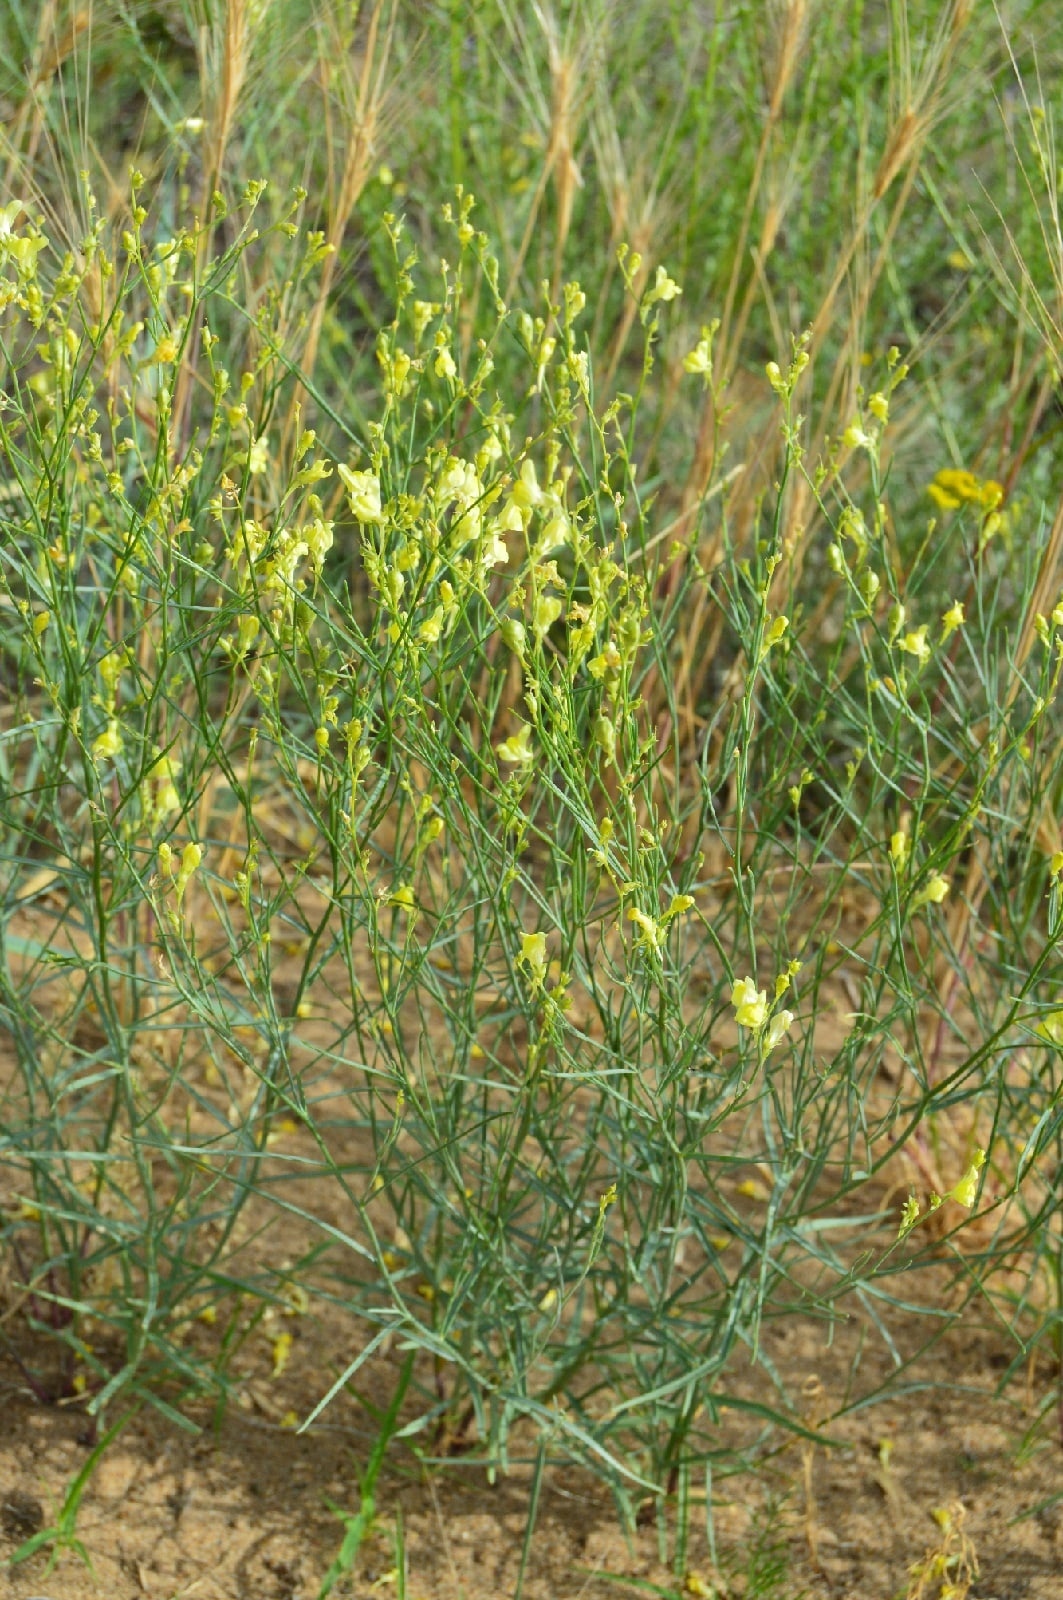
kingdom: Plantae
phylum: Tracheophyta
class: Magnoliopsida
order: Lamiales
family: Plantaginaceae
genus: Linaria
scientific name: Linaria odora
